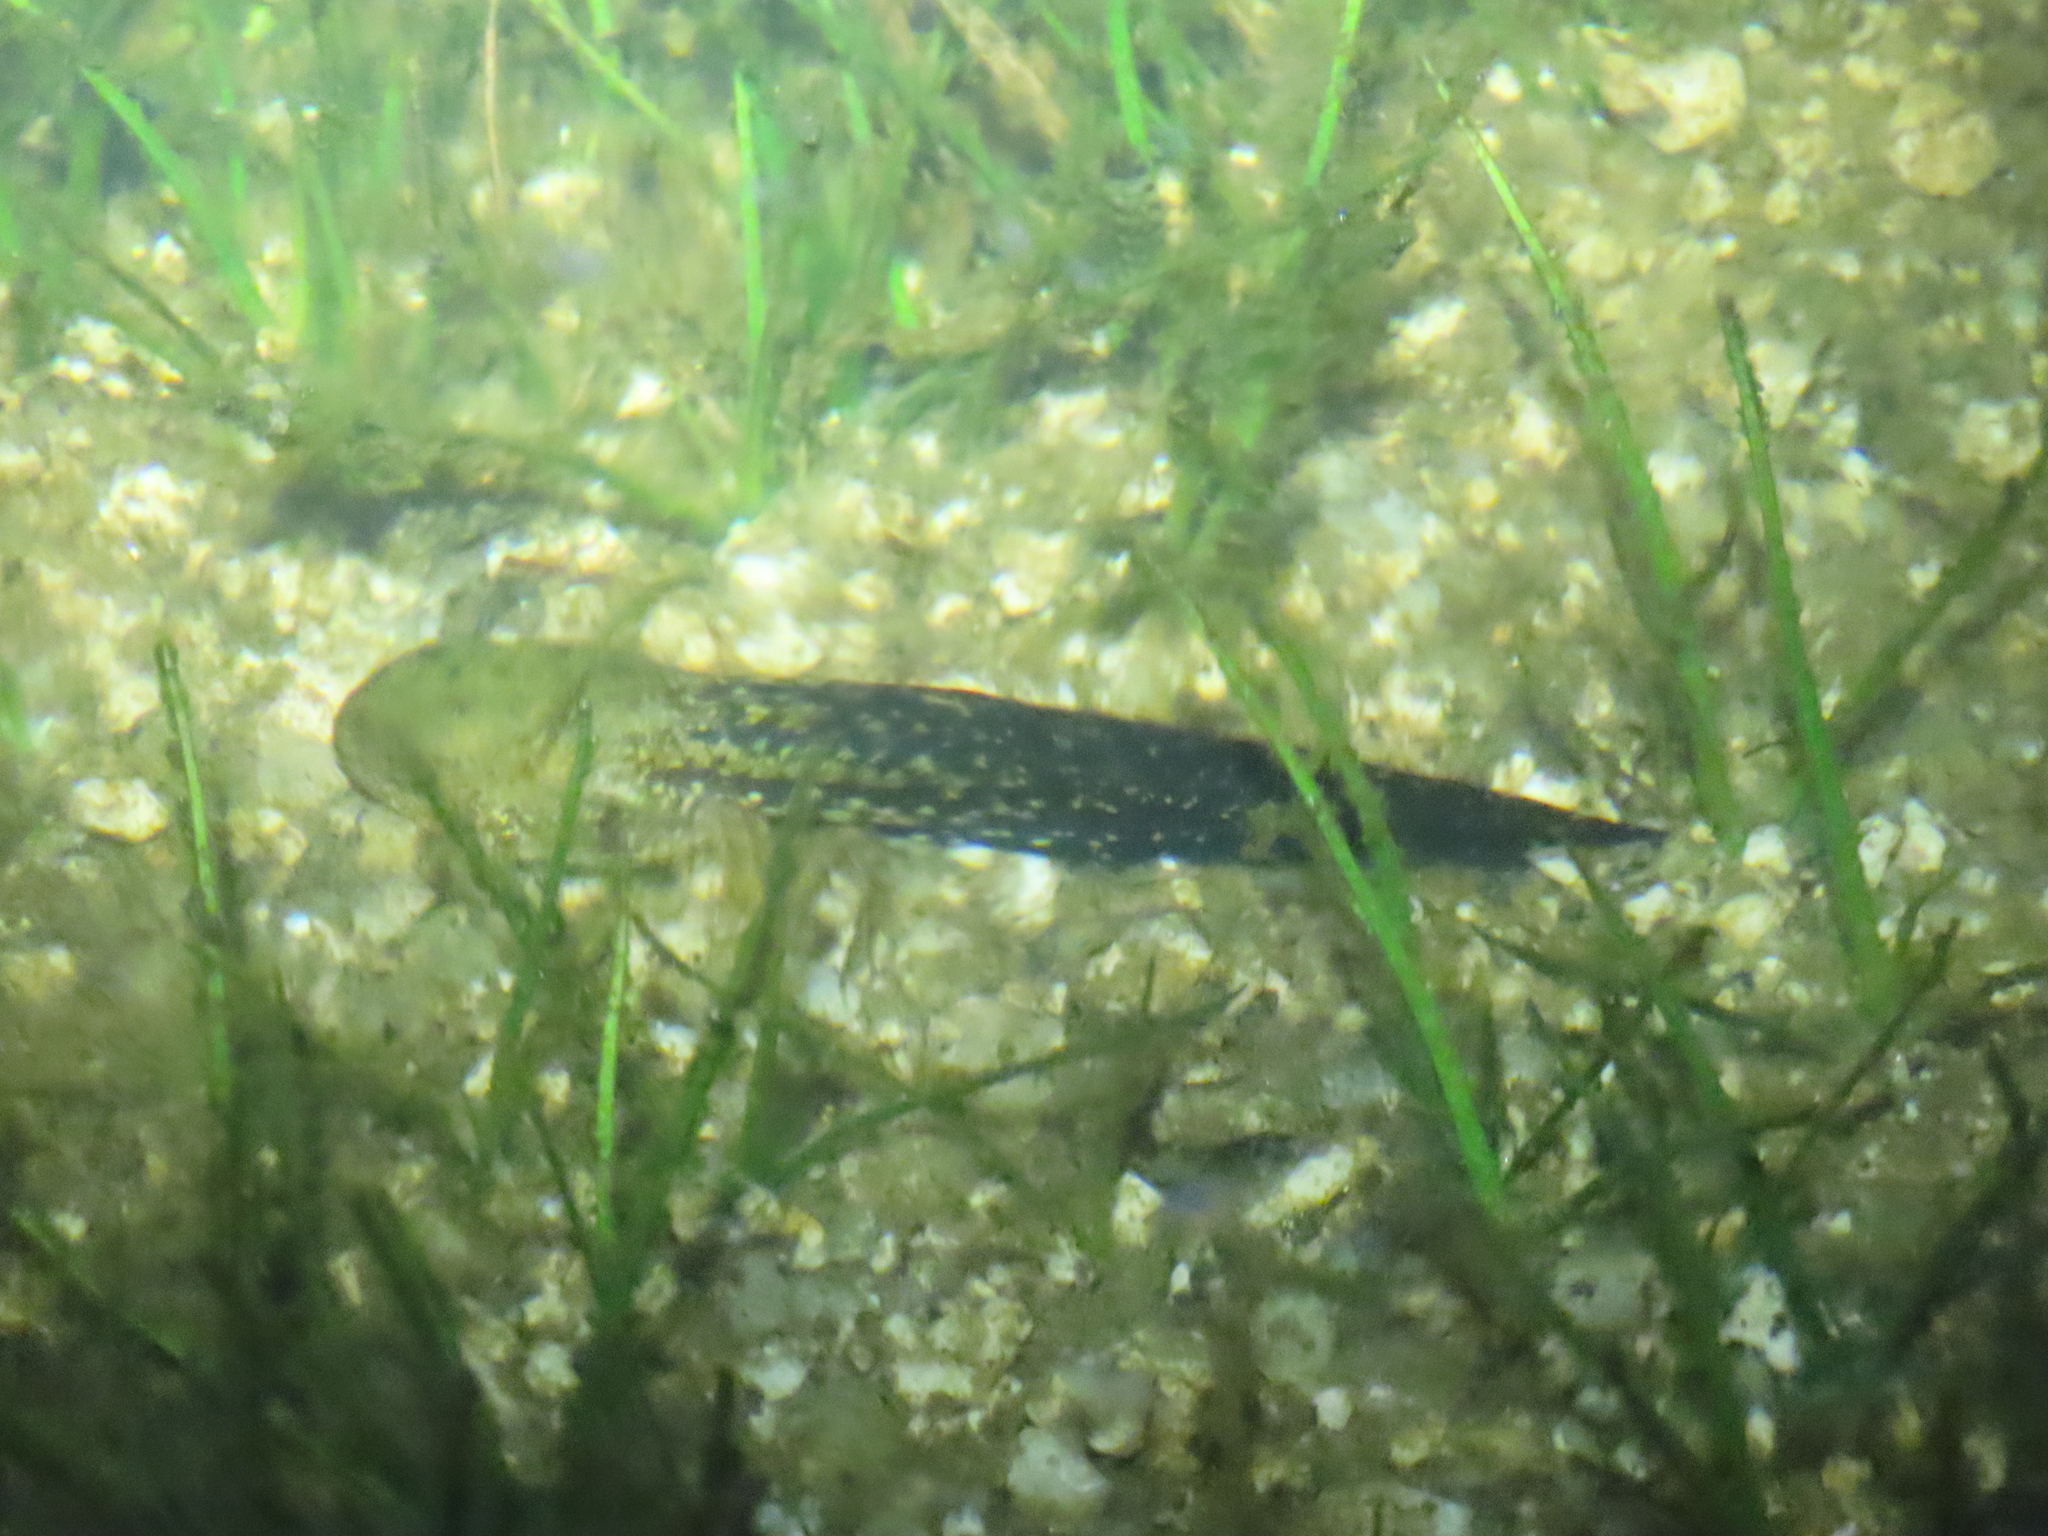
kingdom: Animalia
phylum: Chordata
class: Amphibia
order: Anura
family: Ranidae
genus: Pelophylax
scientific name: Pelophylax perezi
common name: Perez's frog
